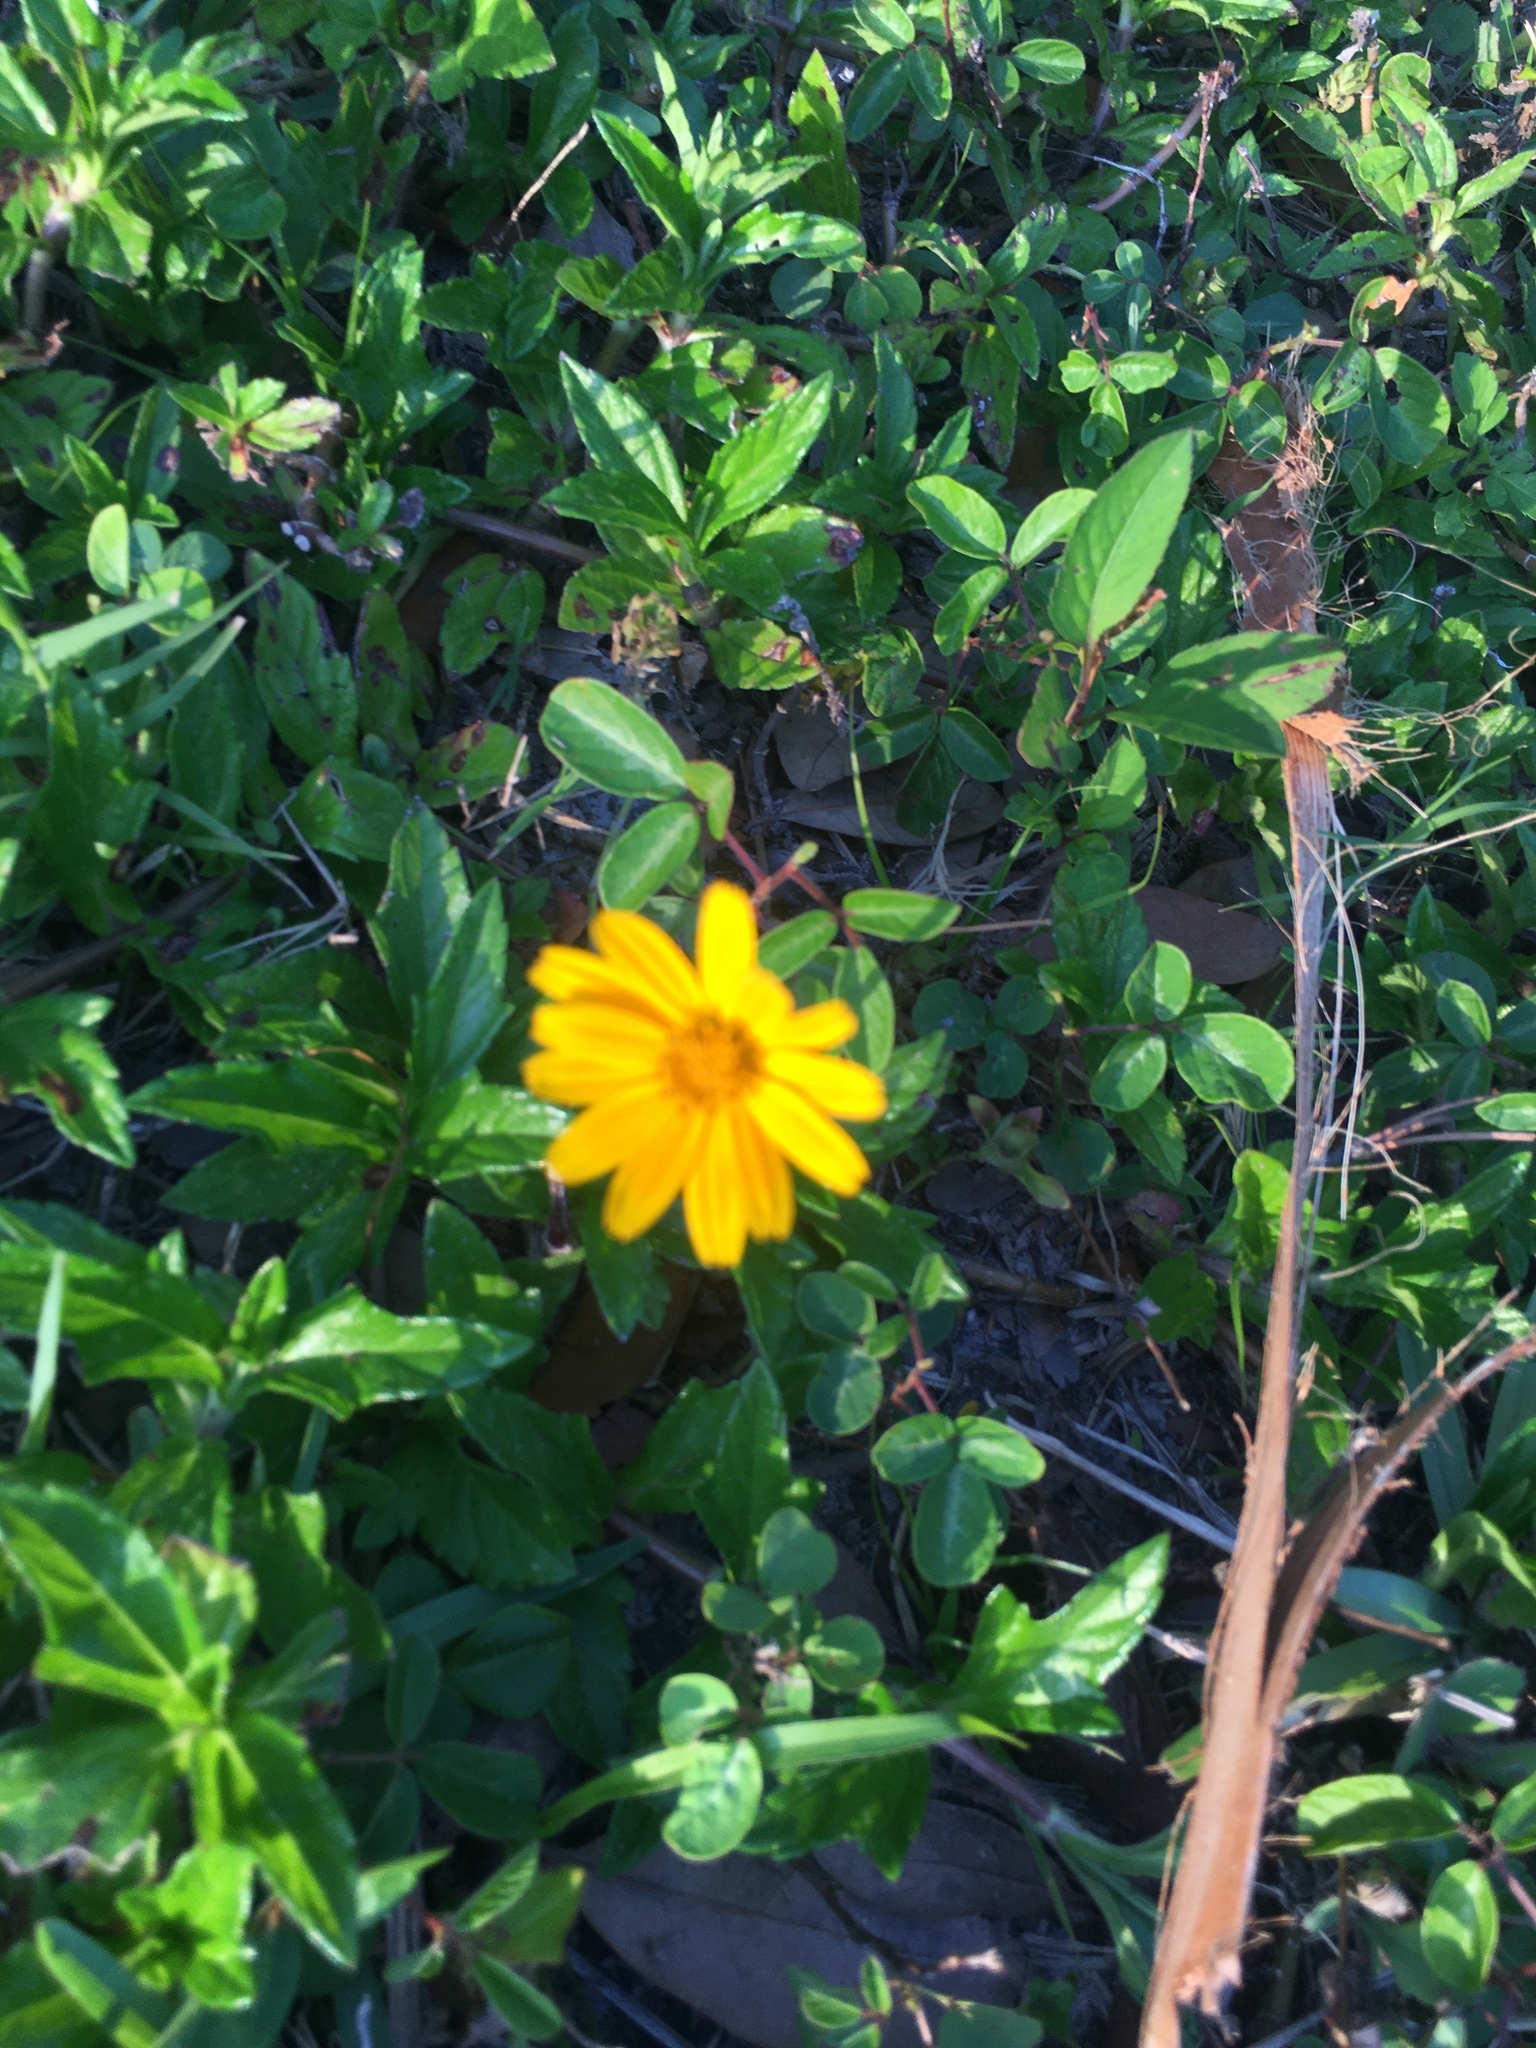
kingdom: Plantae
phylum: Tracheophyta
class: Magnoliopsida
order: Asterales
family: Asteraceae
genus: Sphagneticola
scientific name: Sphagneticola trilobata
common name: Bay biscayne creeping-oxeye
